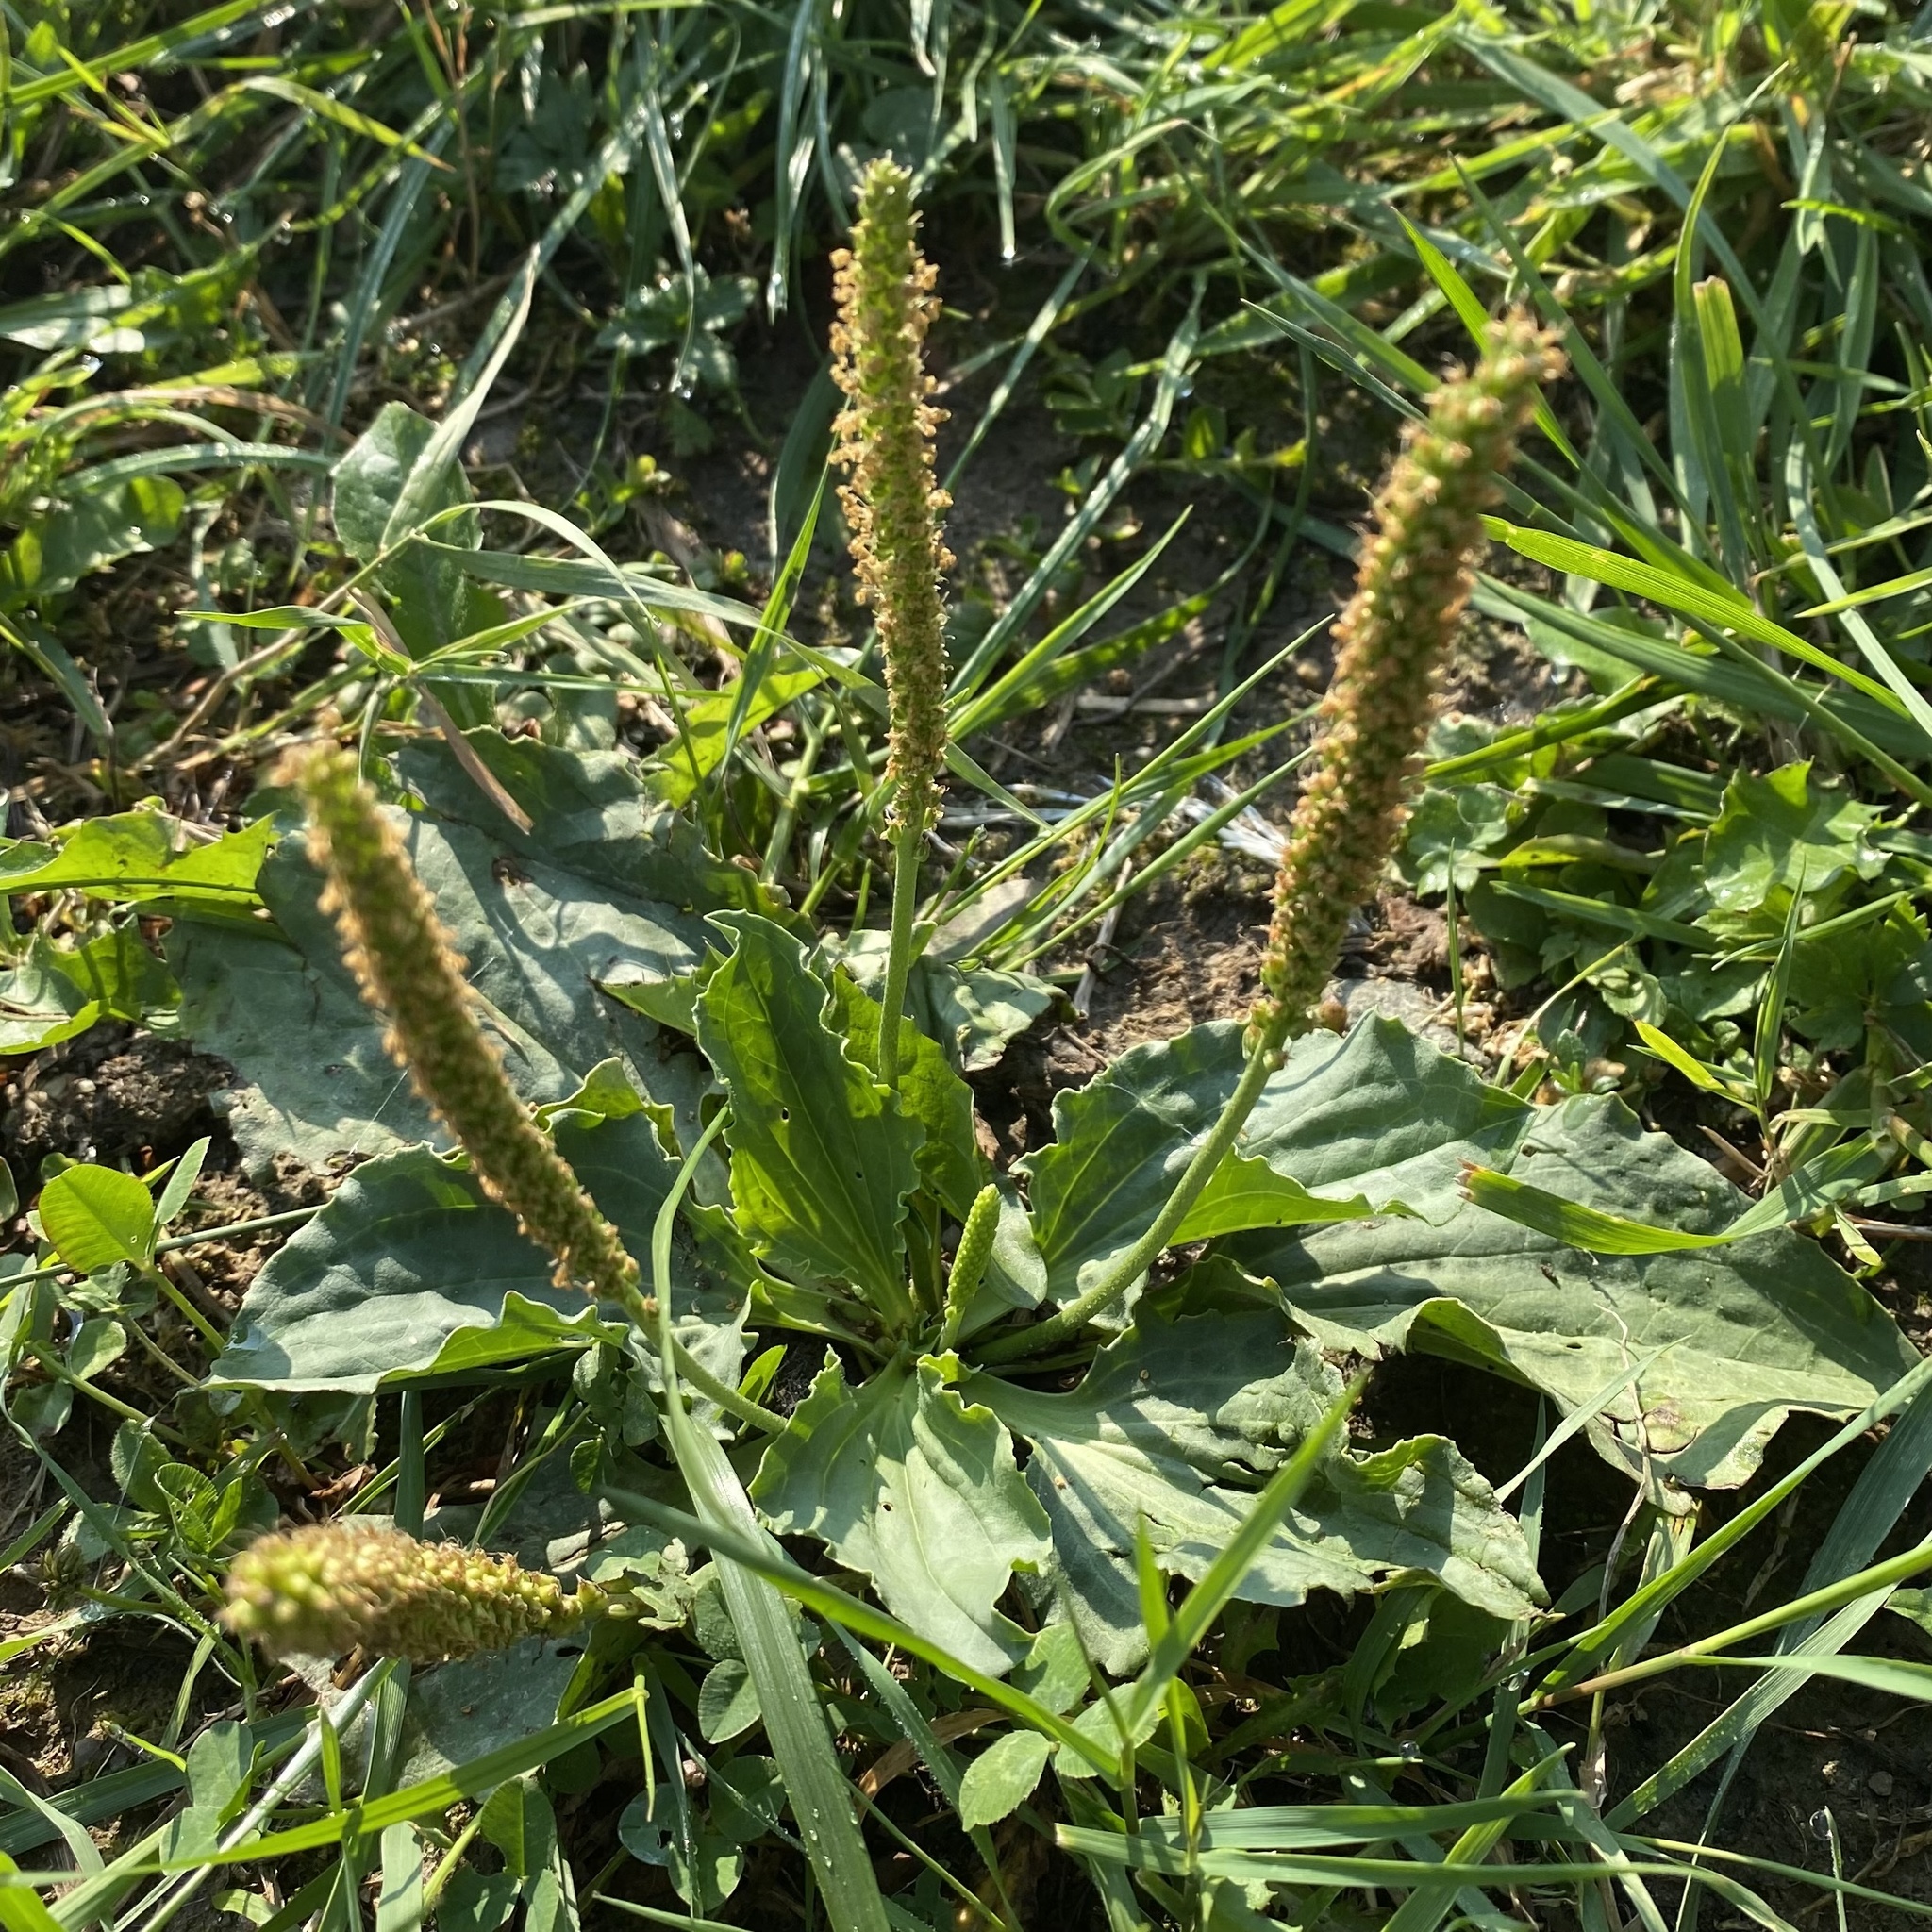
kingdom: Plantae
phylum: Tracheophyta
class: Magnoliopsida
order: Lamiales
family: Plantaginaceae
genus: Plantago
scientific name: Plantago major
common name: Common plantain
